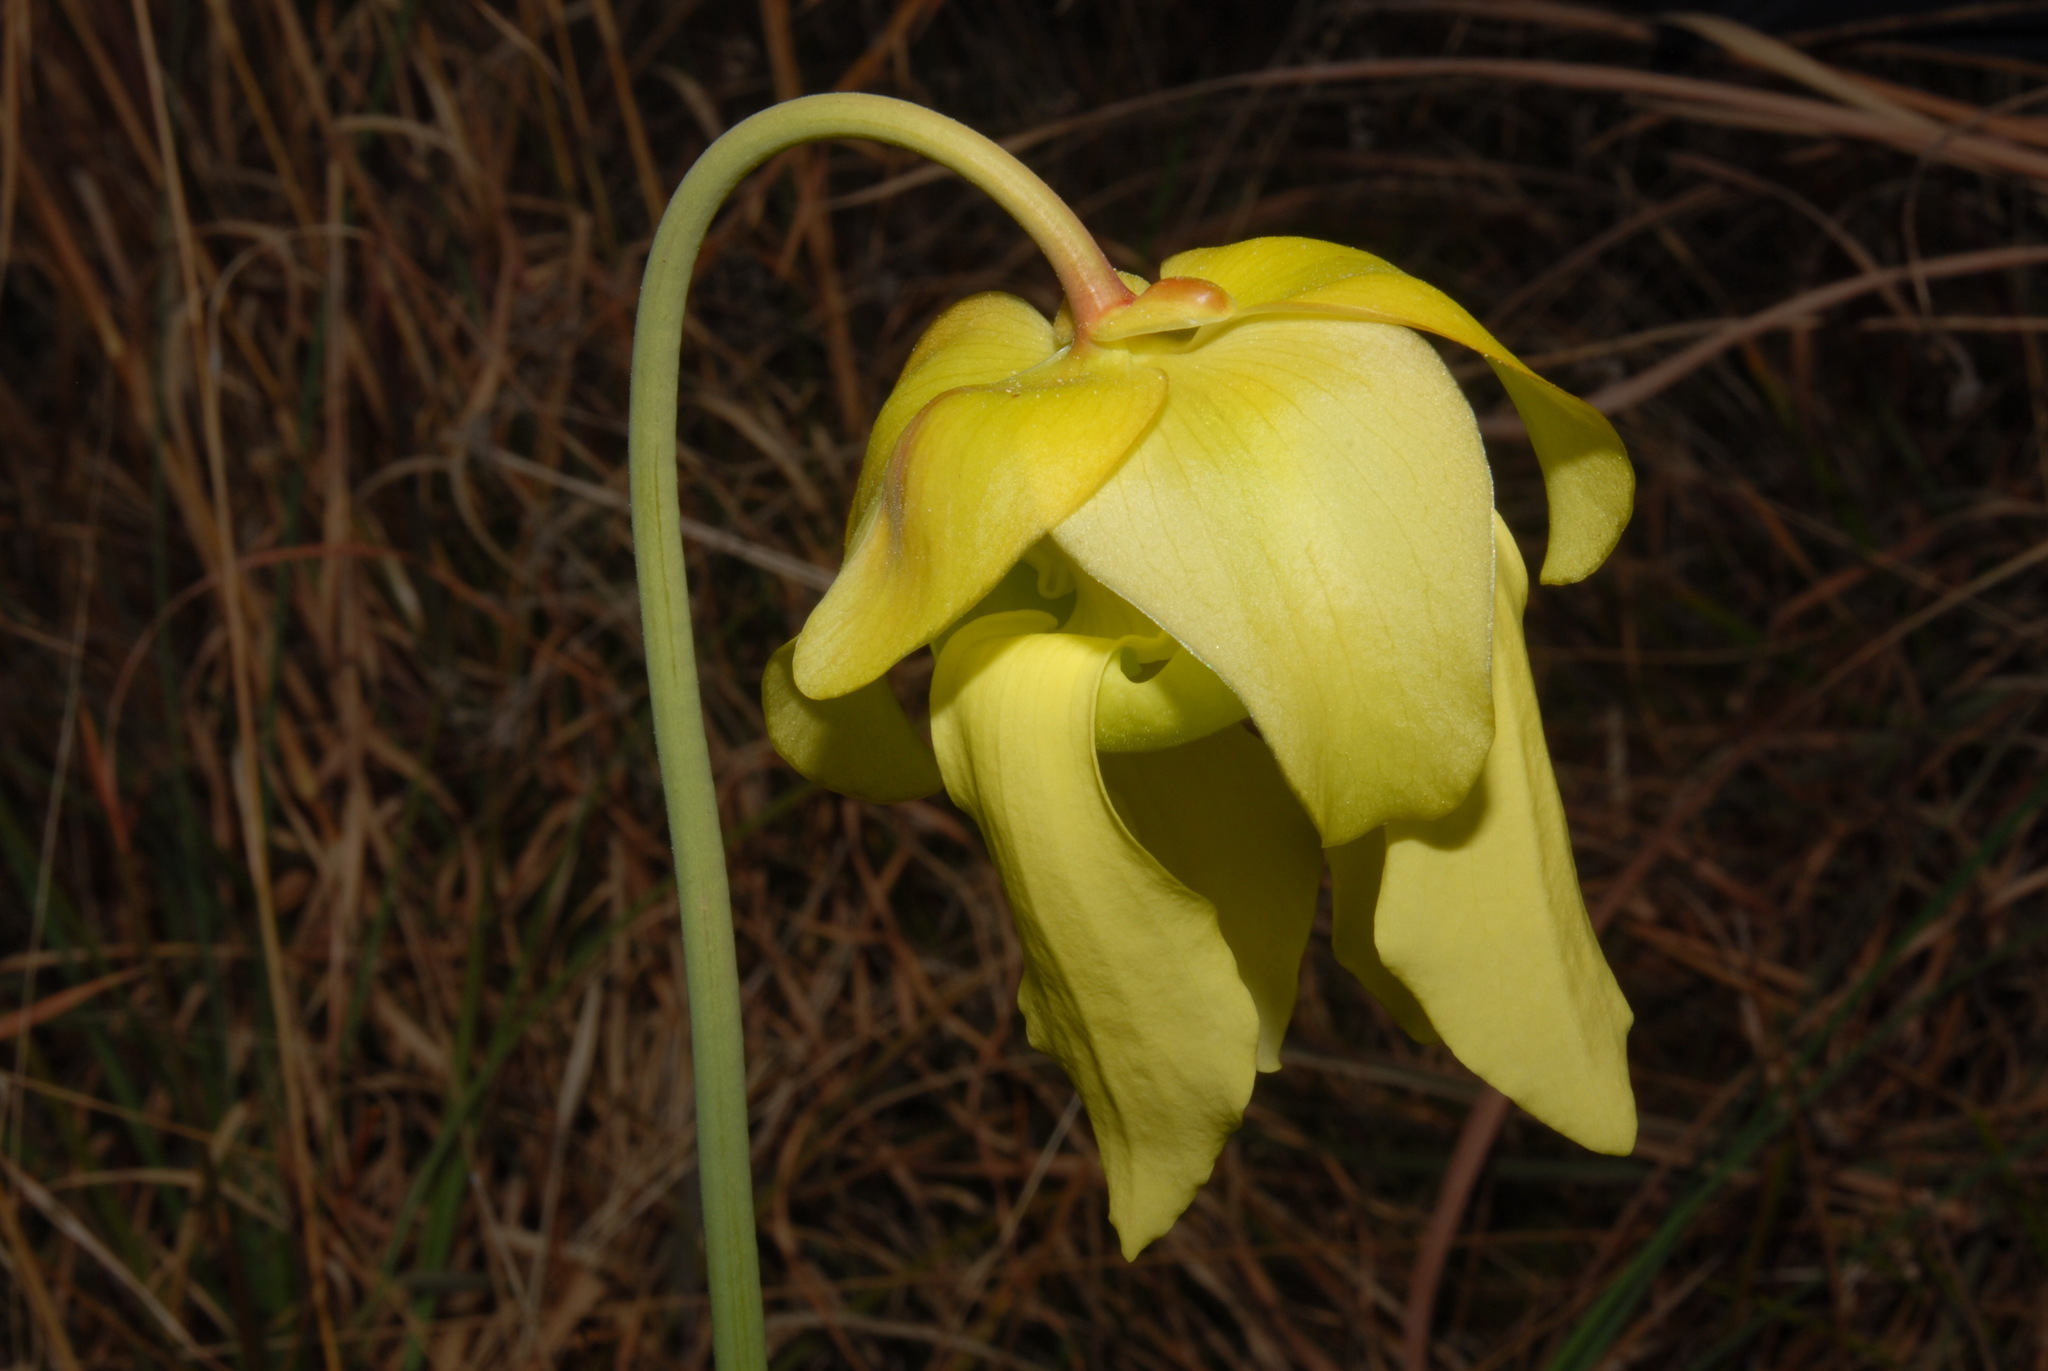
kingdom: Plantae
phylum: Tracheophyta
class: Magnoliopsida
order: Ericales
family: Sarraceniaceae
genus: Sarracenia
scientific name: Sarracenia flava
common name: Trumpets
